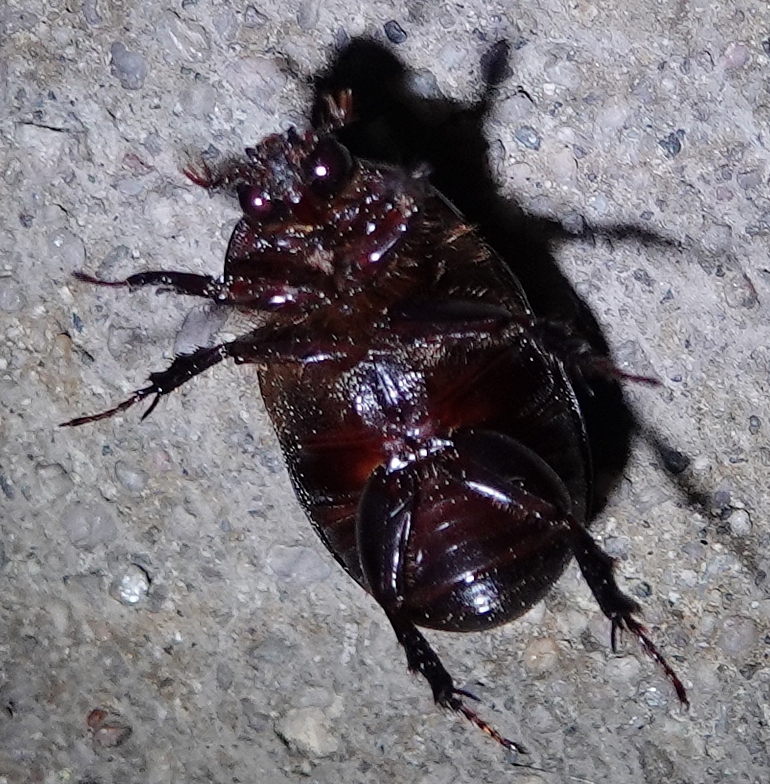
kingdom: Animalia
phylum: Arthropoda
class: Insecta
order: Coleoptera
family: Scarabaeidae
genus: Ligyrus
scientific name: Ligyrus relictus
